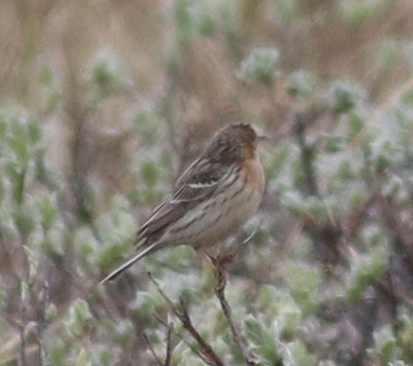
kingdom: Animalia
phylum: Chordata
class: Aves
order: Passeriformes
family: Motacillidae
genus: Anthus
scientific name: Anthus cervinus
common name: Red-throated pipit
